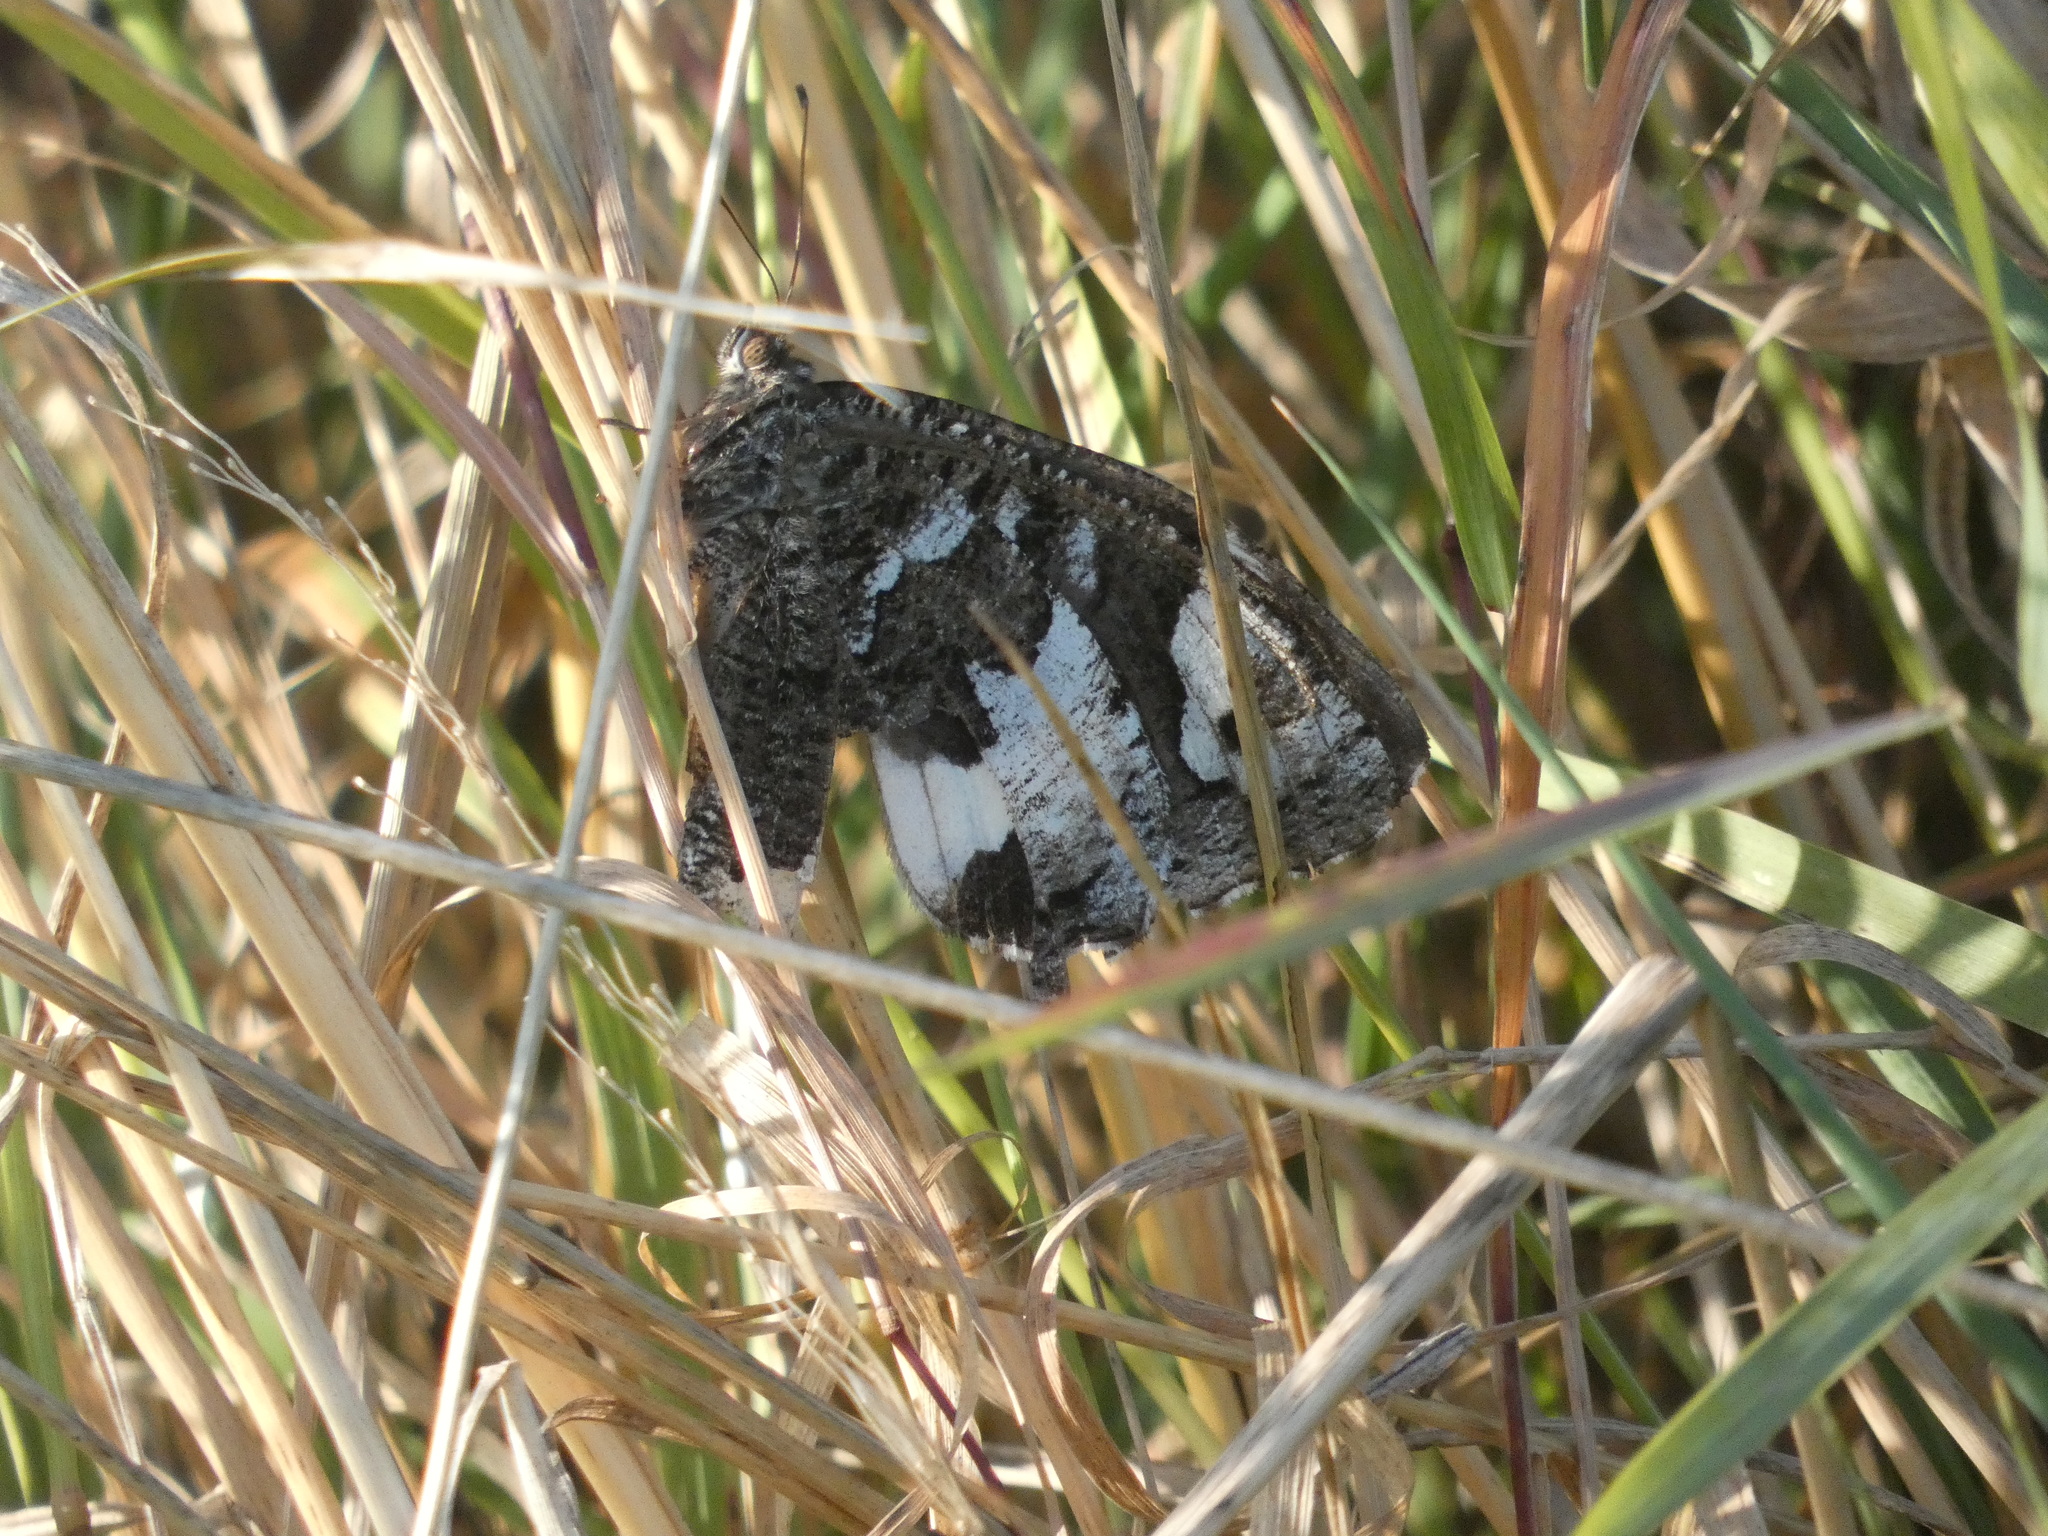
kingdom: Animalia
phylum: Arthropoda
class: Insecta
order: Lepidoptera
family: Lycaenidae
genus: Loweia
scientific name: Loweia tityrus
